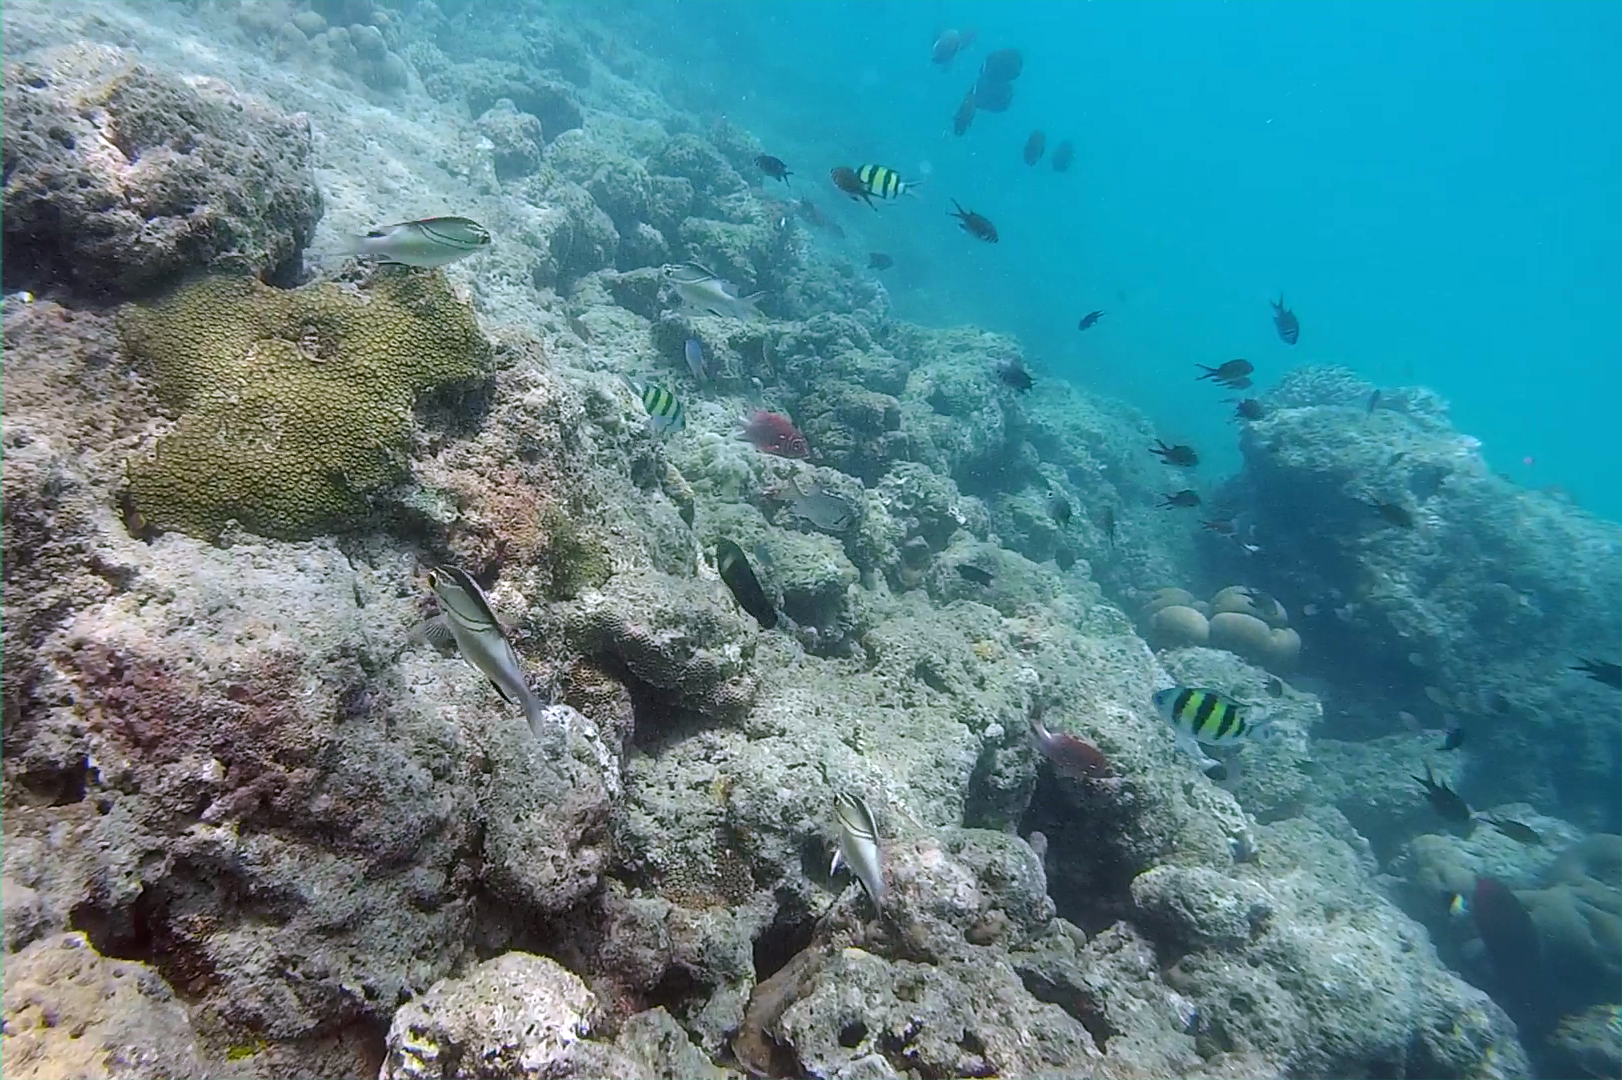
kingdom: Animalia
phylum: Chordata
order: Perciformes
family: Nemipteridae
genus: Scolopsis
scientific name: Scolopsis bilineata
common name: Two-lined monocle bream
